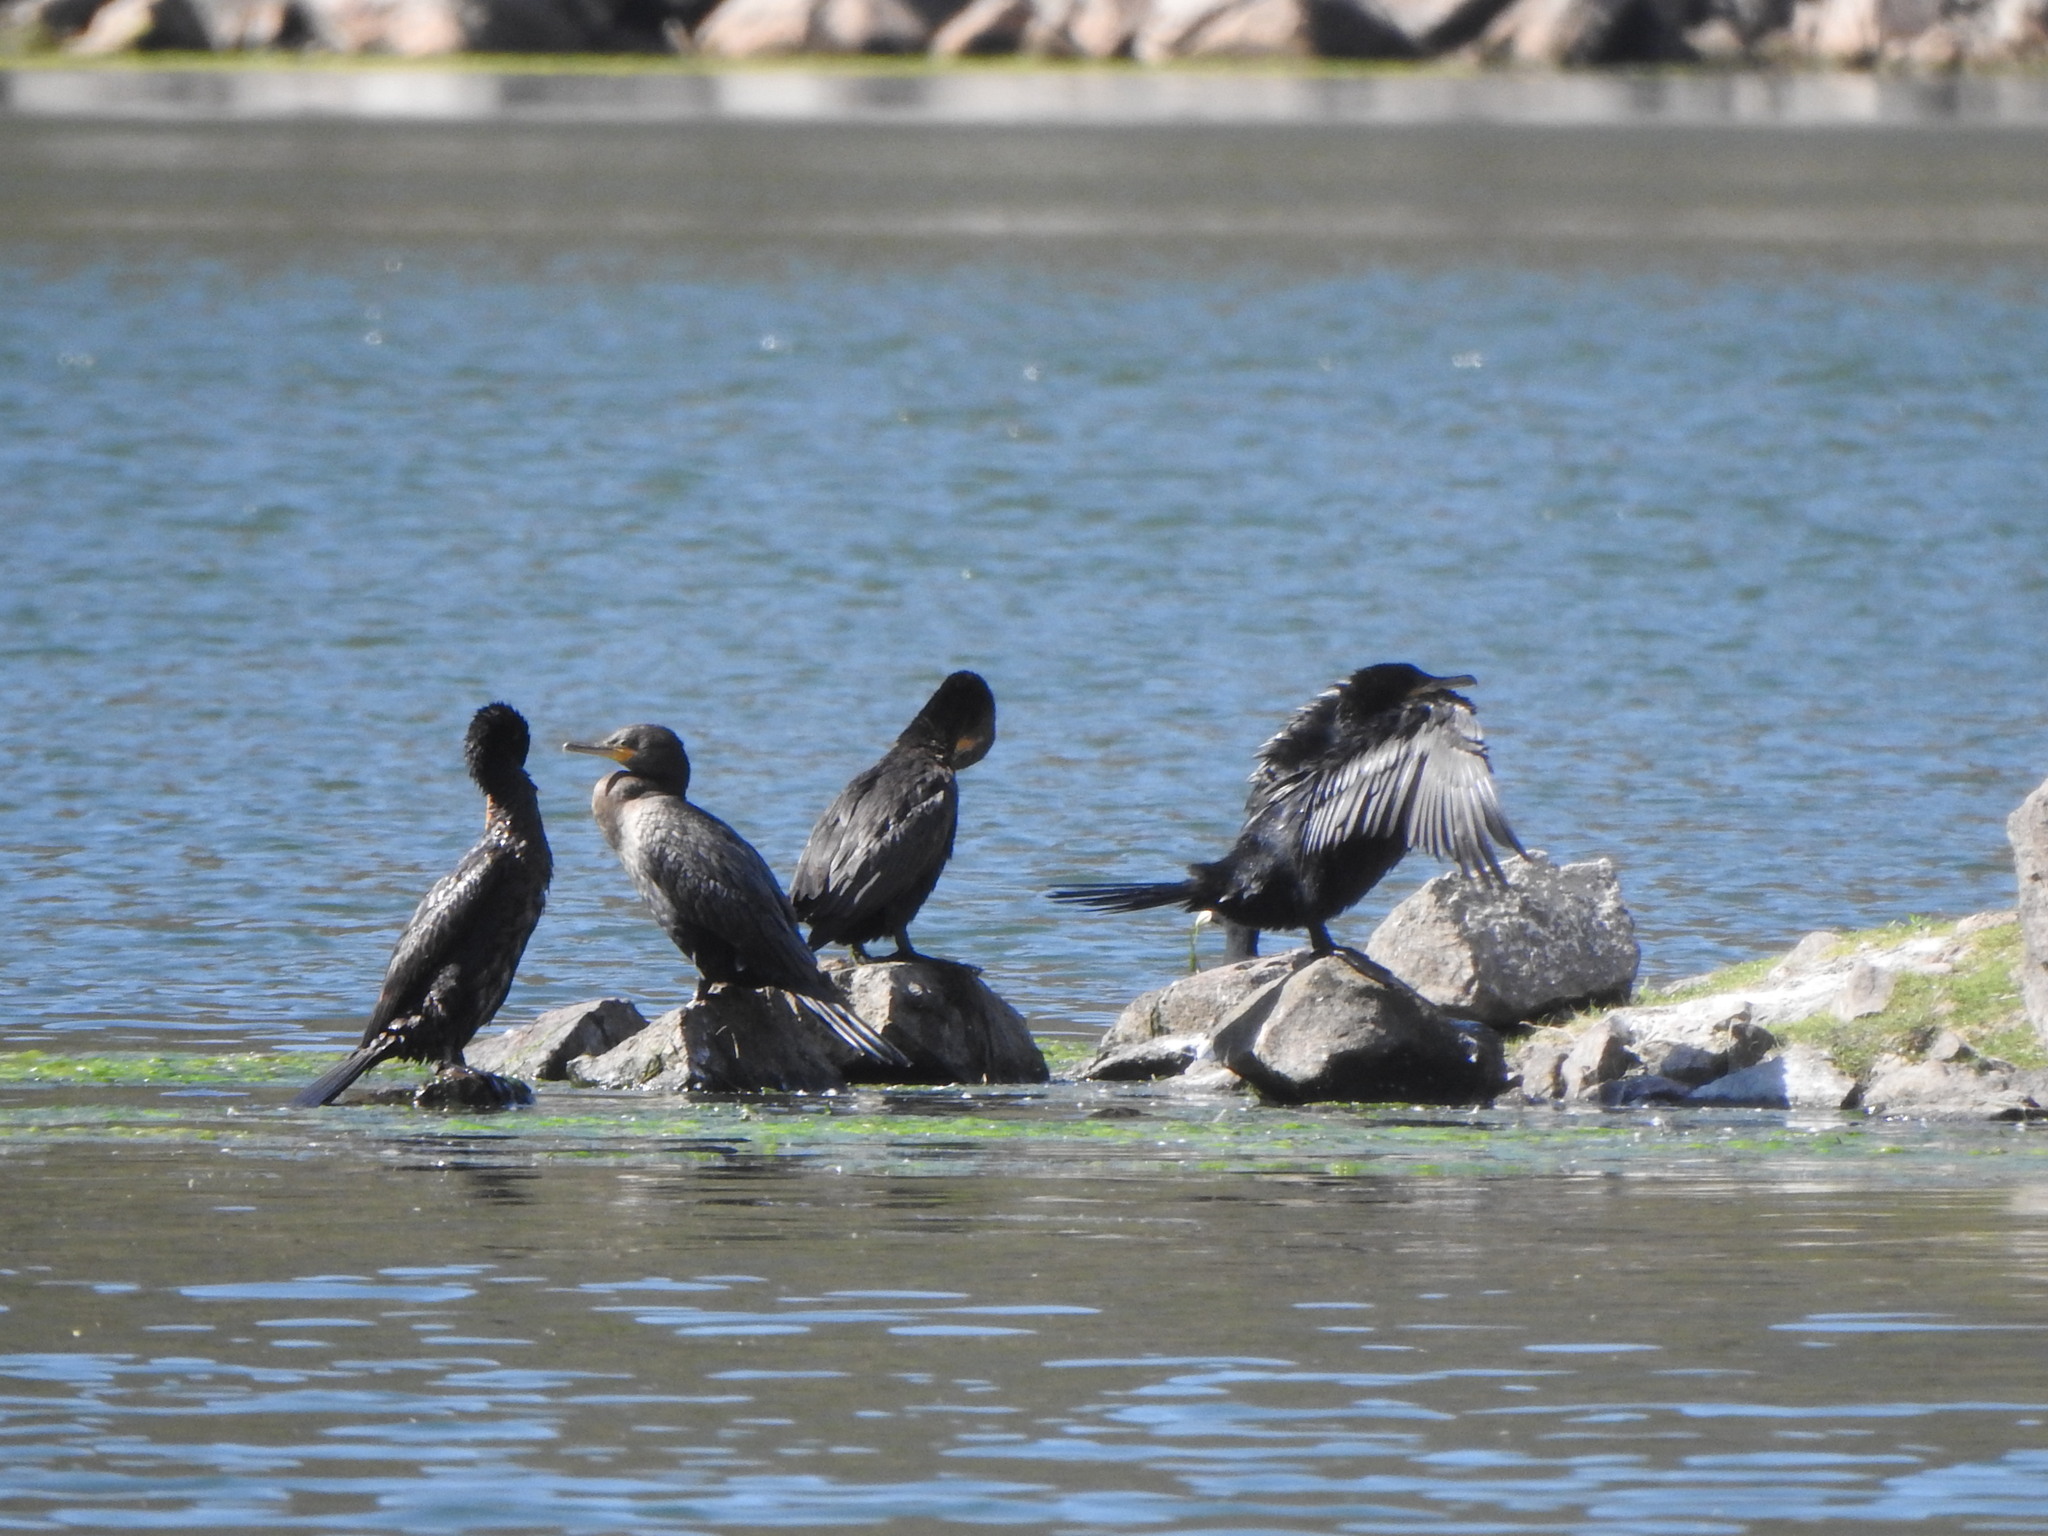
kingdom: Animalia
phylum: Chordata
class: Aves
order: Suliformes
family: Phalacrocoracidae
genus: Phalacrocorax
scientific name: Phalacrocorax brasilianus
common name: Neotropic cormorant
